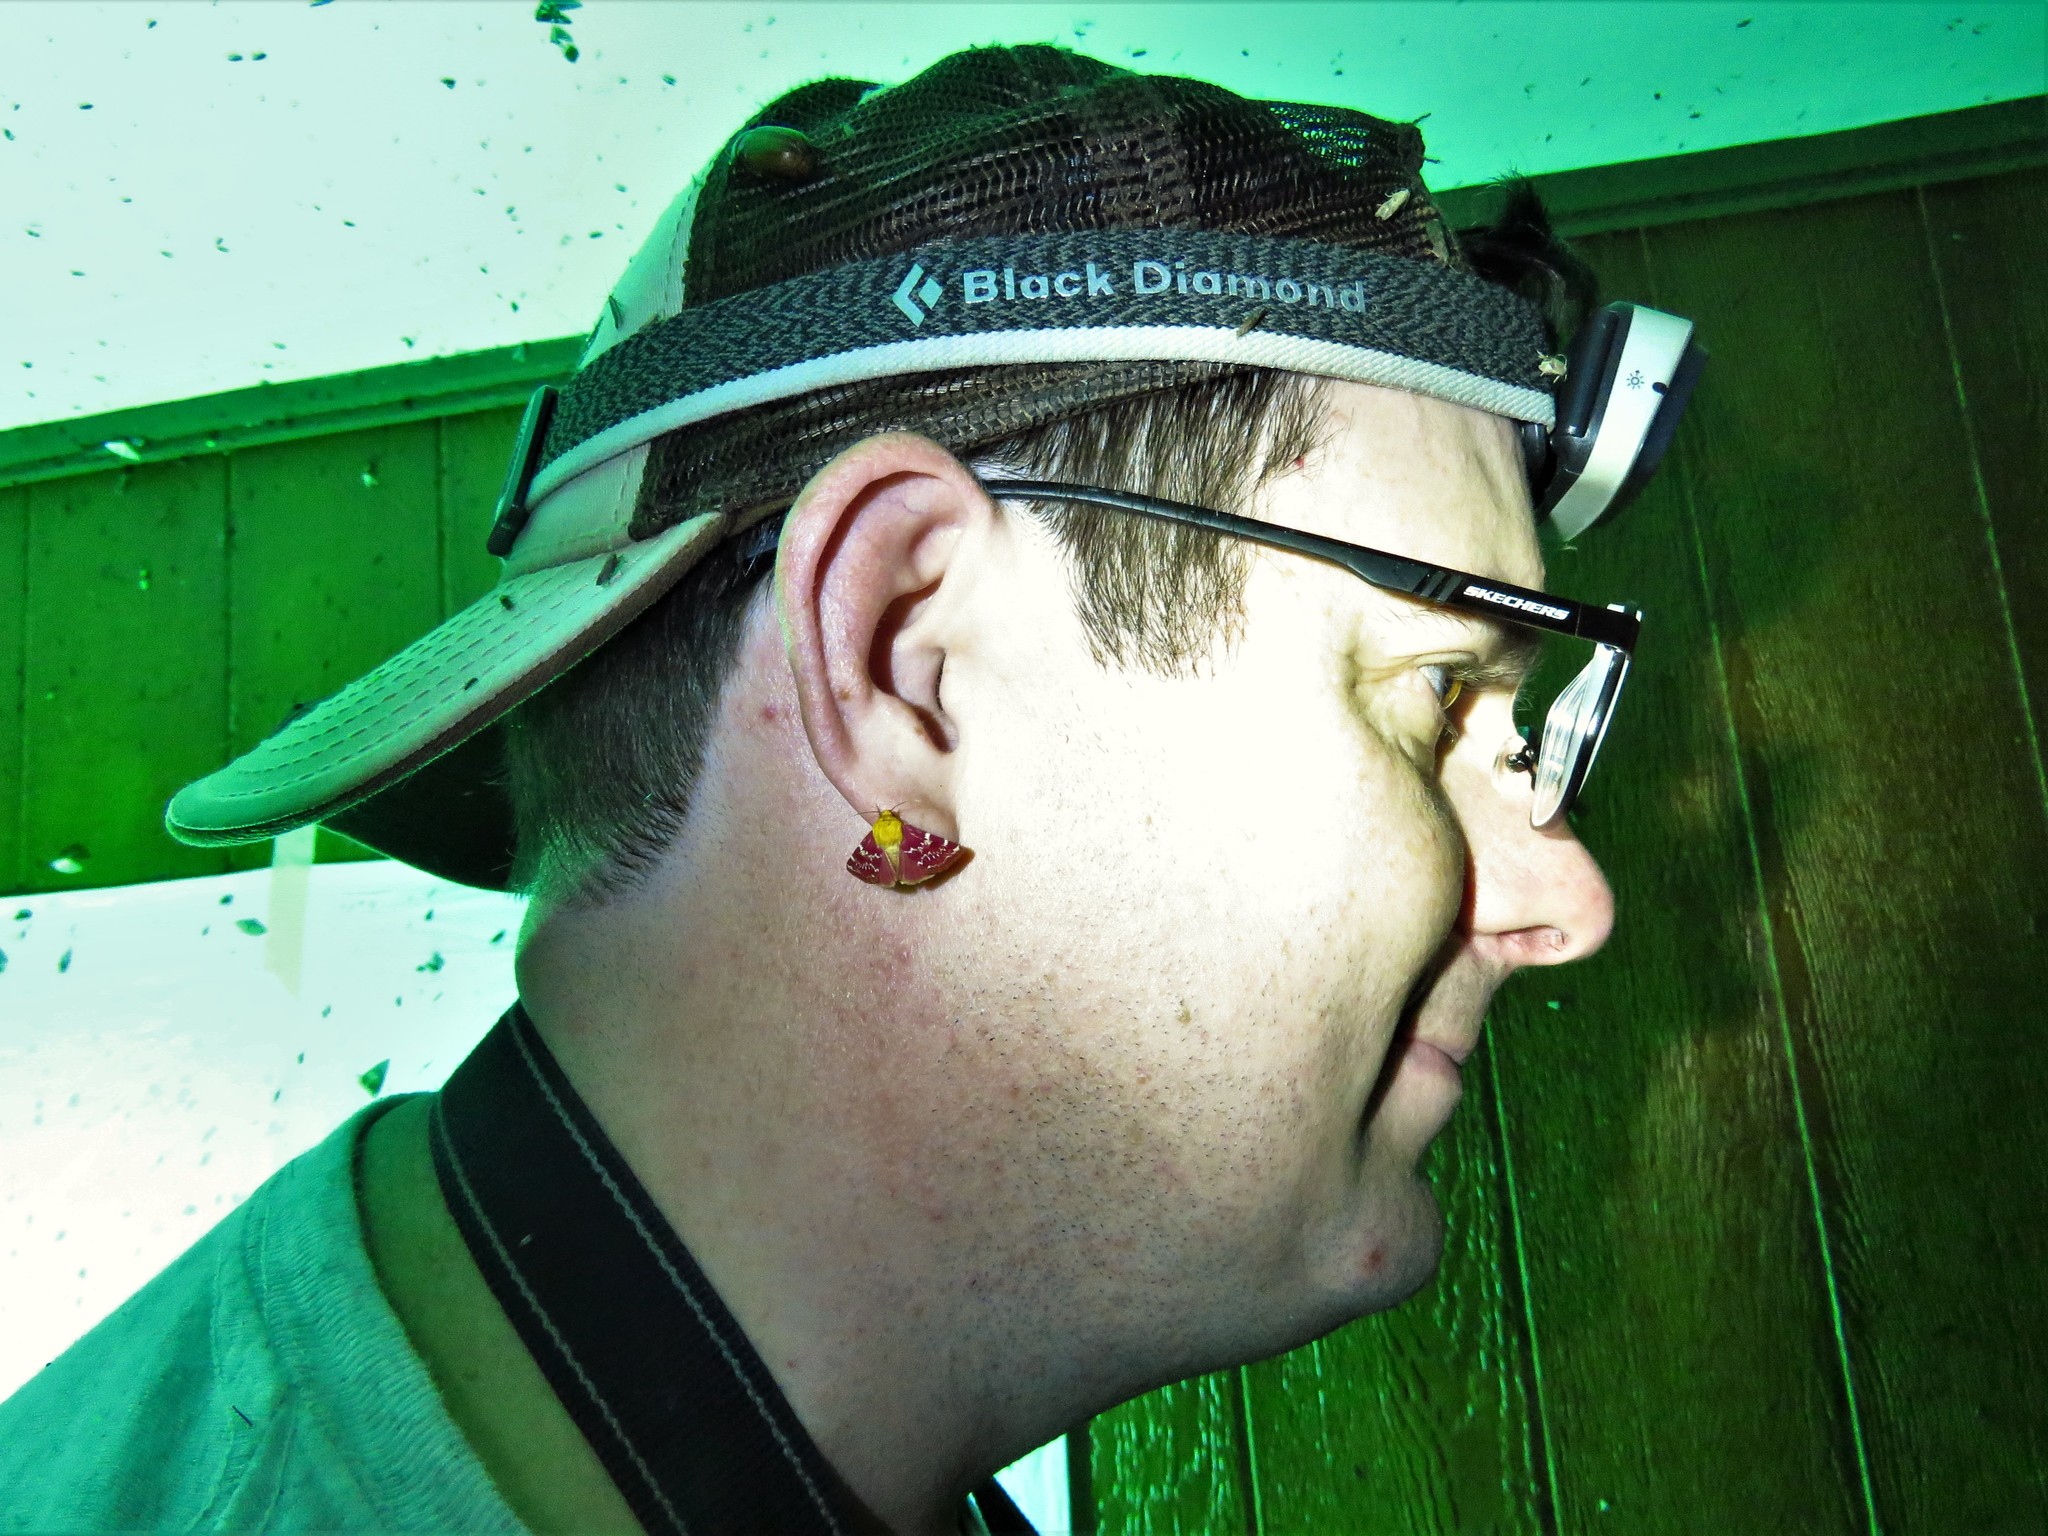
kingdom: Animalia
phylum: Arthropoda
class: Insecta
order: Lepidoptera
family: Noctuidae
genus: Schinia
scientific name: Schinia volupia
